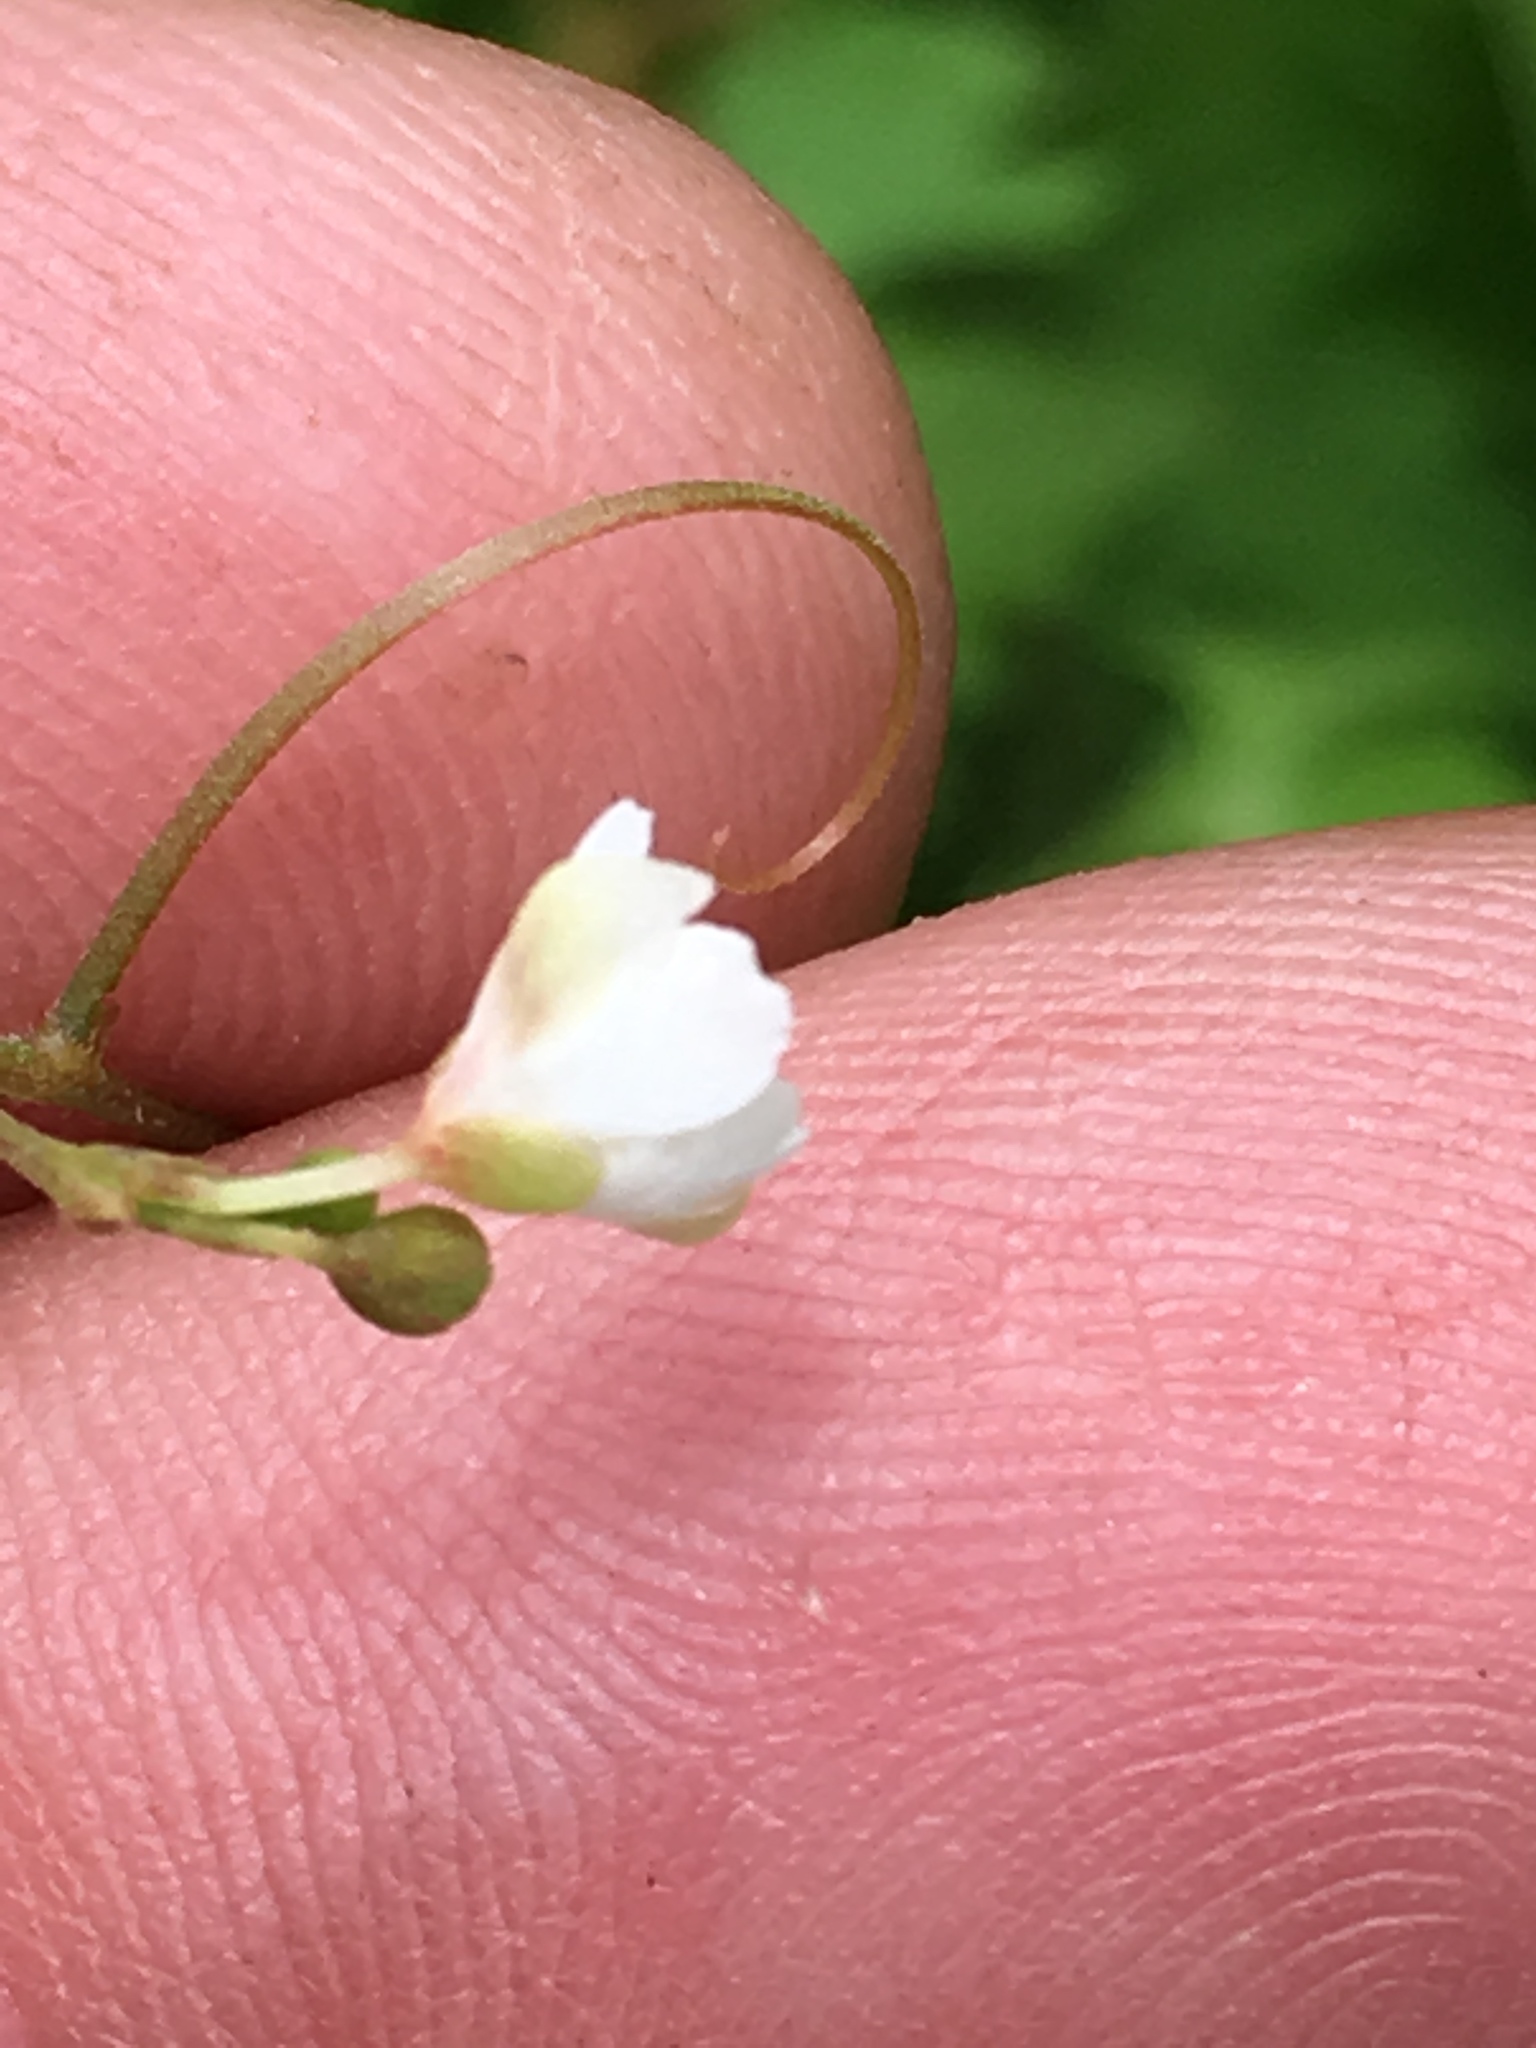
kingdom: Plantae
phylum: Tracheophyta
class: Magnoliopsida
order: Sapindales
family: Sapindaceae
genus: Cardiospermum
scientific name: Cardiospermum halicacabum
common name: Balloon vine
